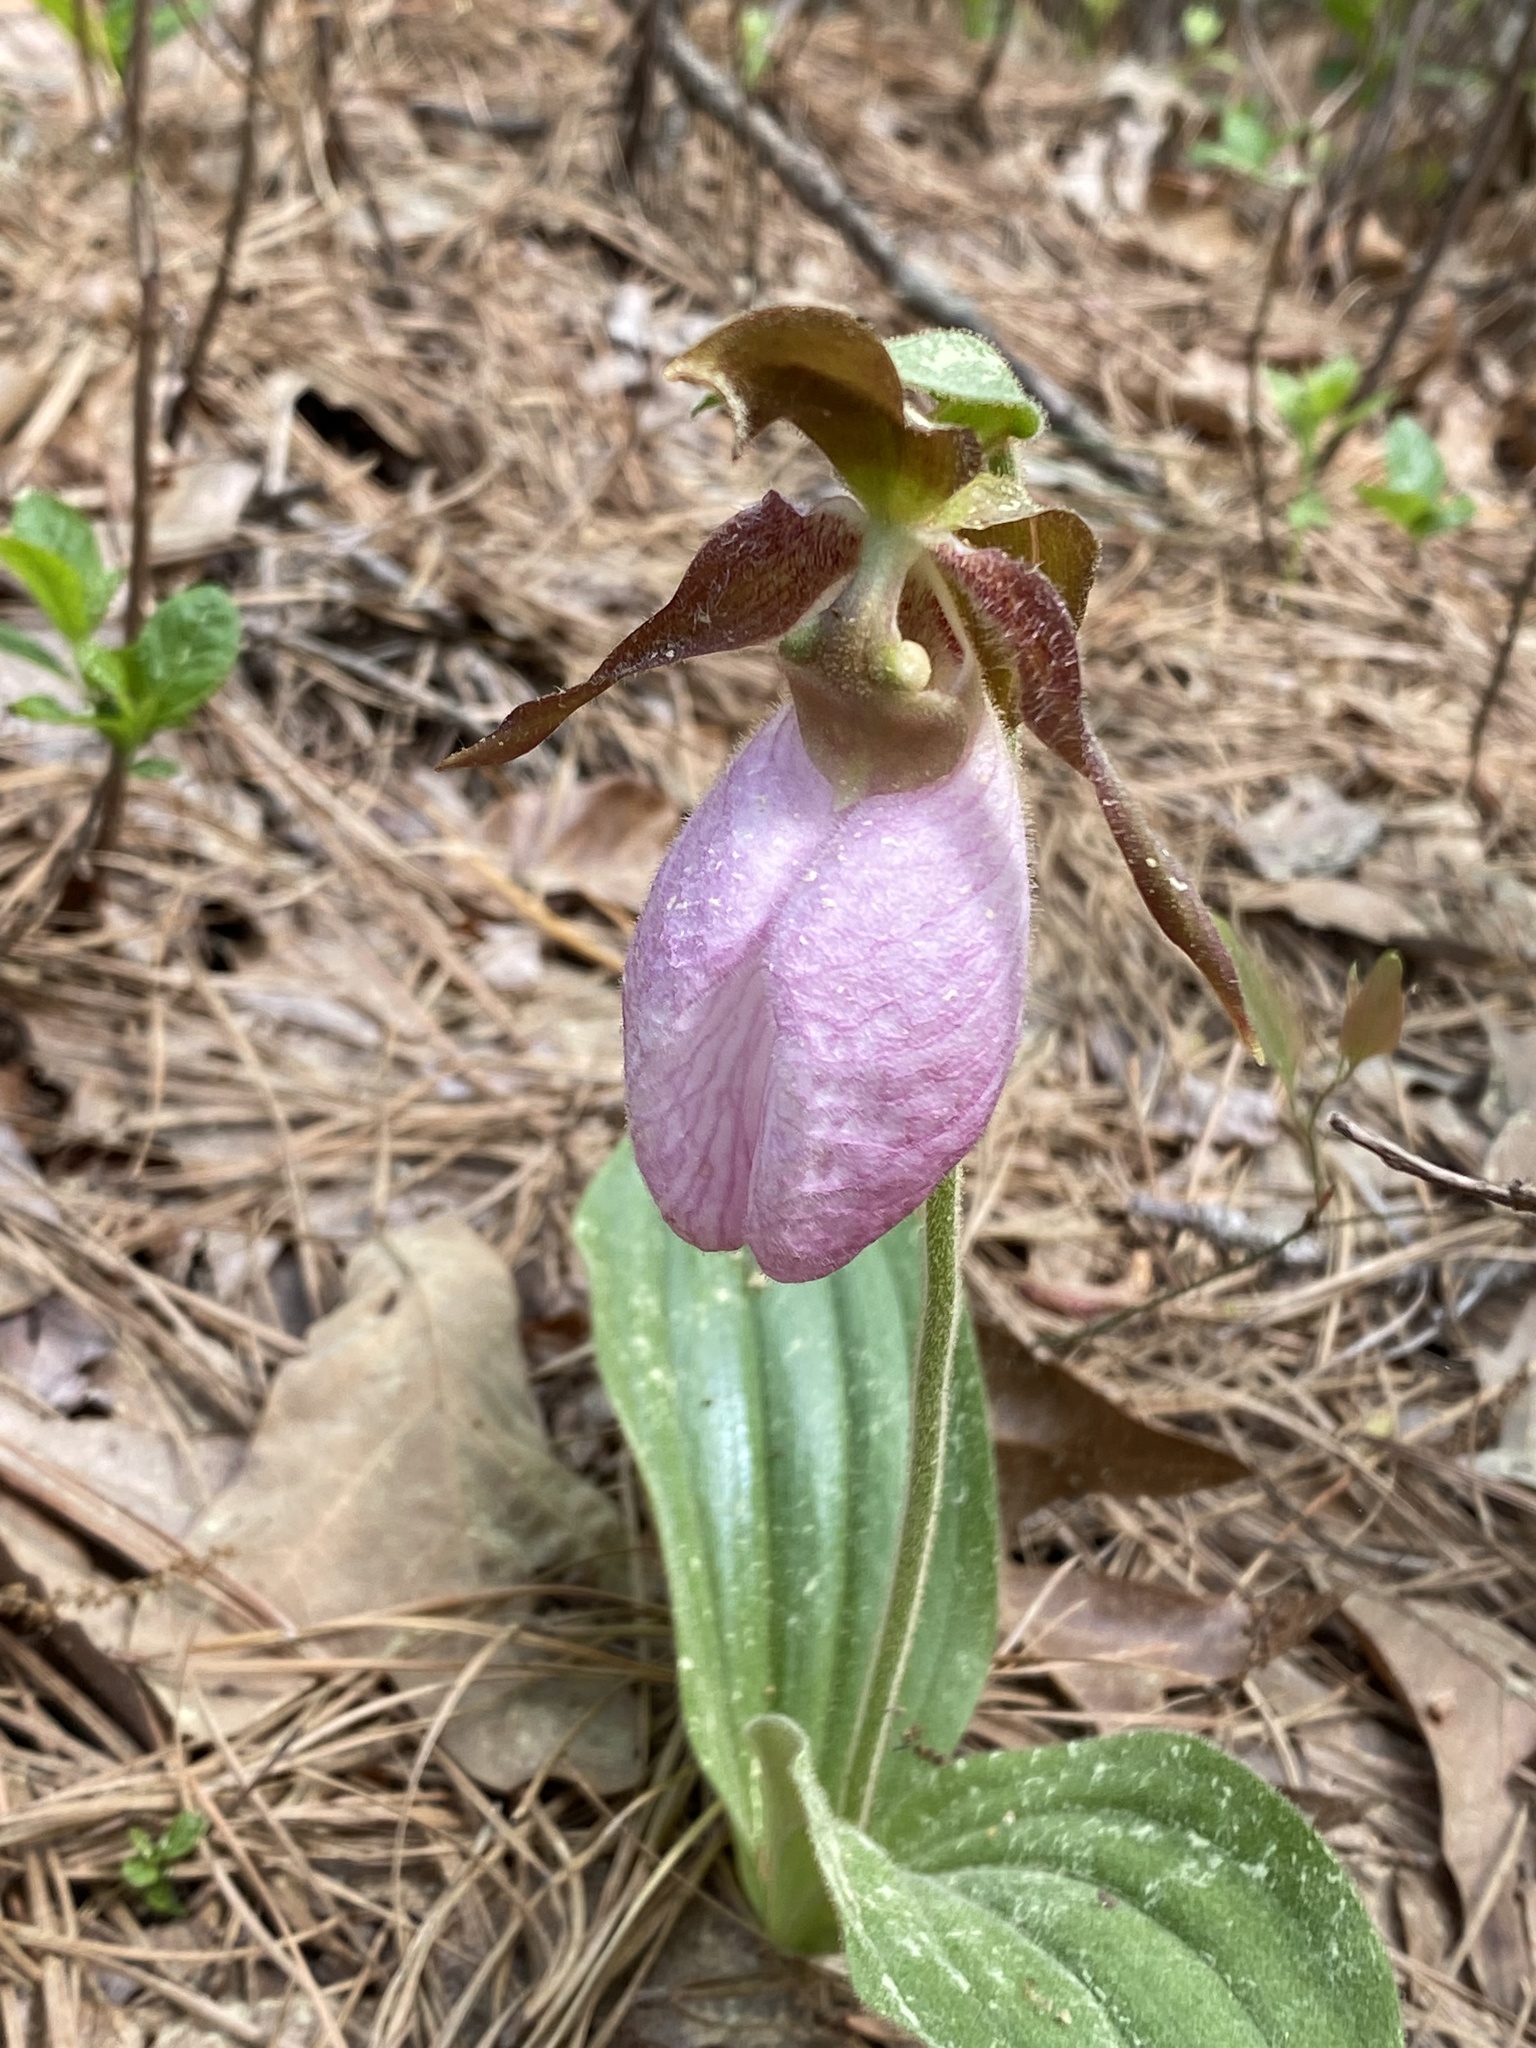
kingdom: Plantae
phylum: Tracheophyta
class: Liliopsida
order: Asparagales
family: Orchidaceae
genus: Cypripedium
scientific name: Cypripedium acaule
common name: Pink lady's-slipper
